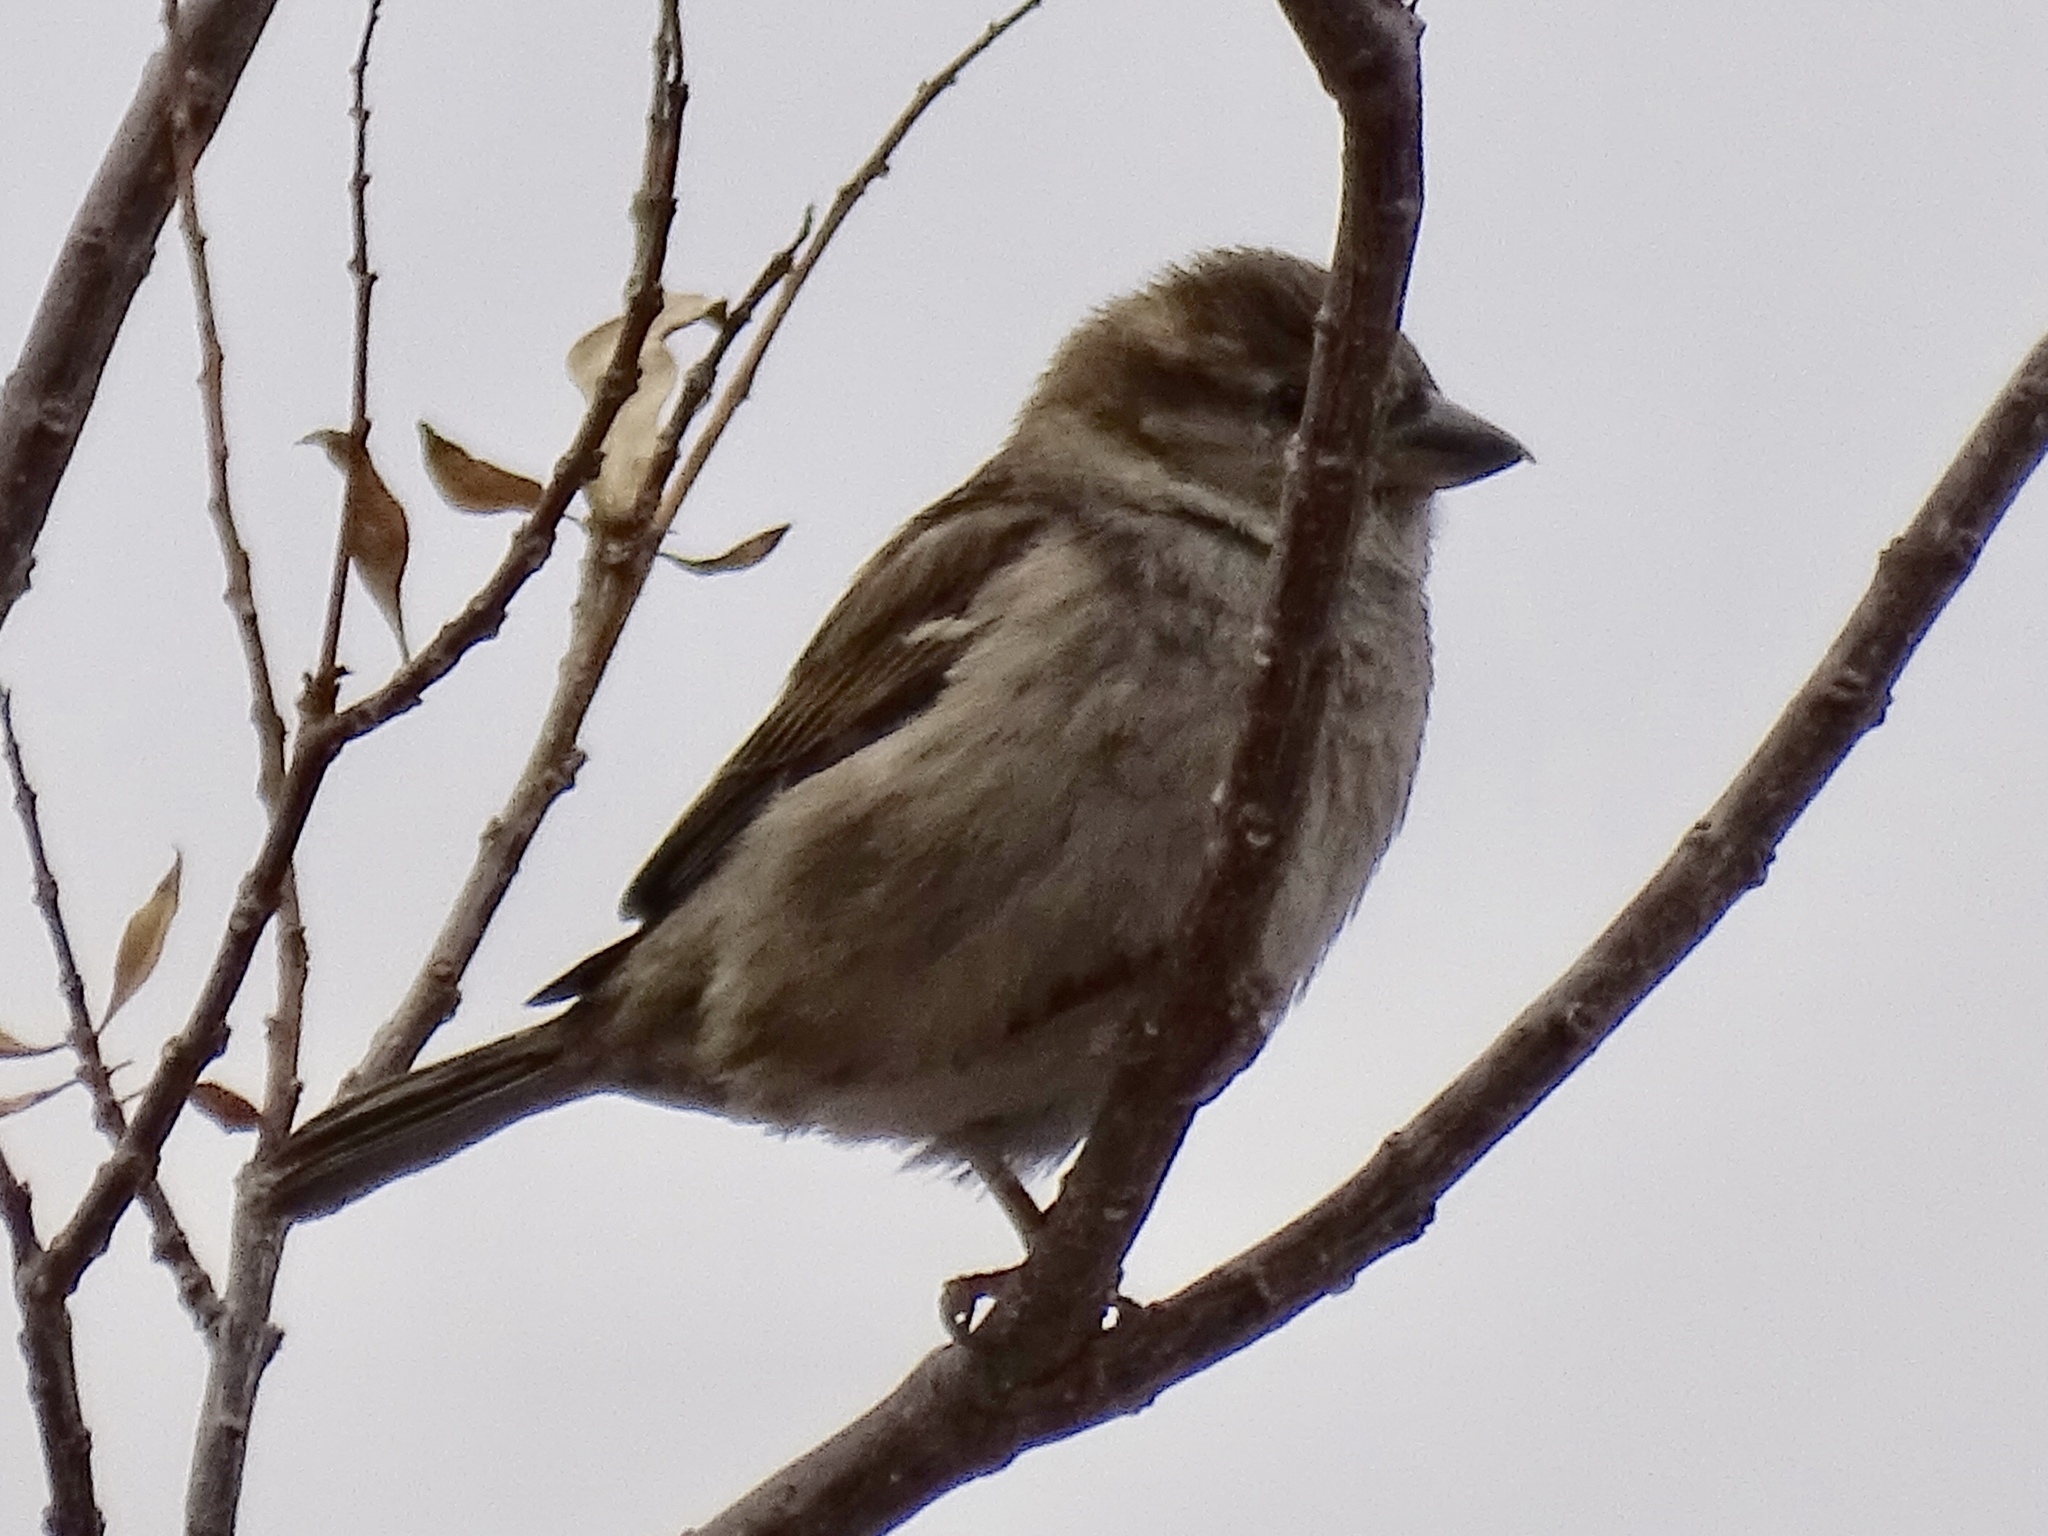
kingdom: Animalia
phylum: Chordata
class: Aves
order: Passeriformes
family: Passeridae
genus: Passer
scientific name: Passer domesticus
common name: House sparrow
